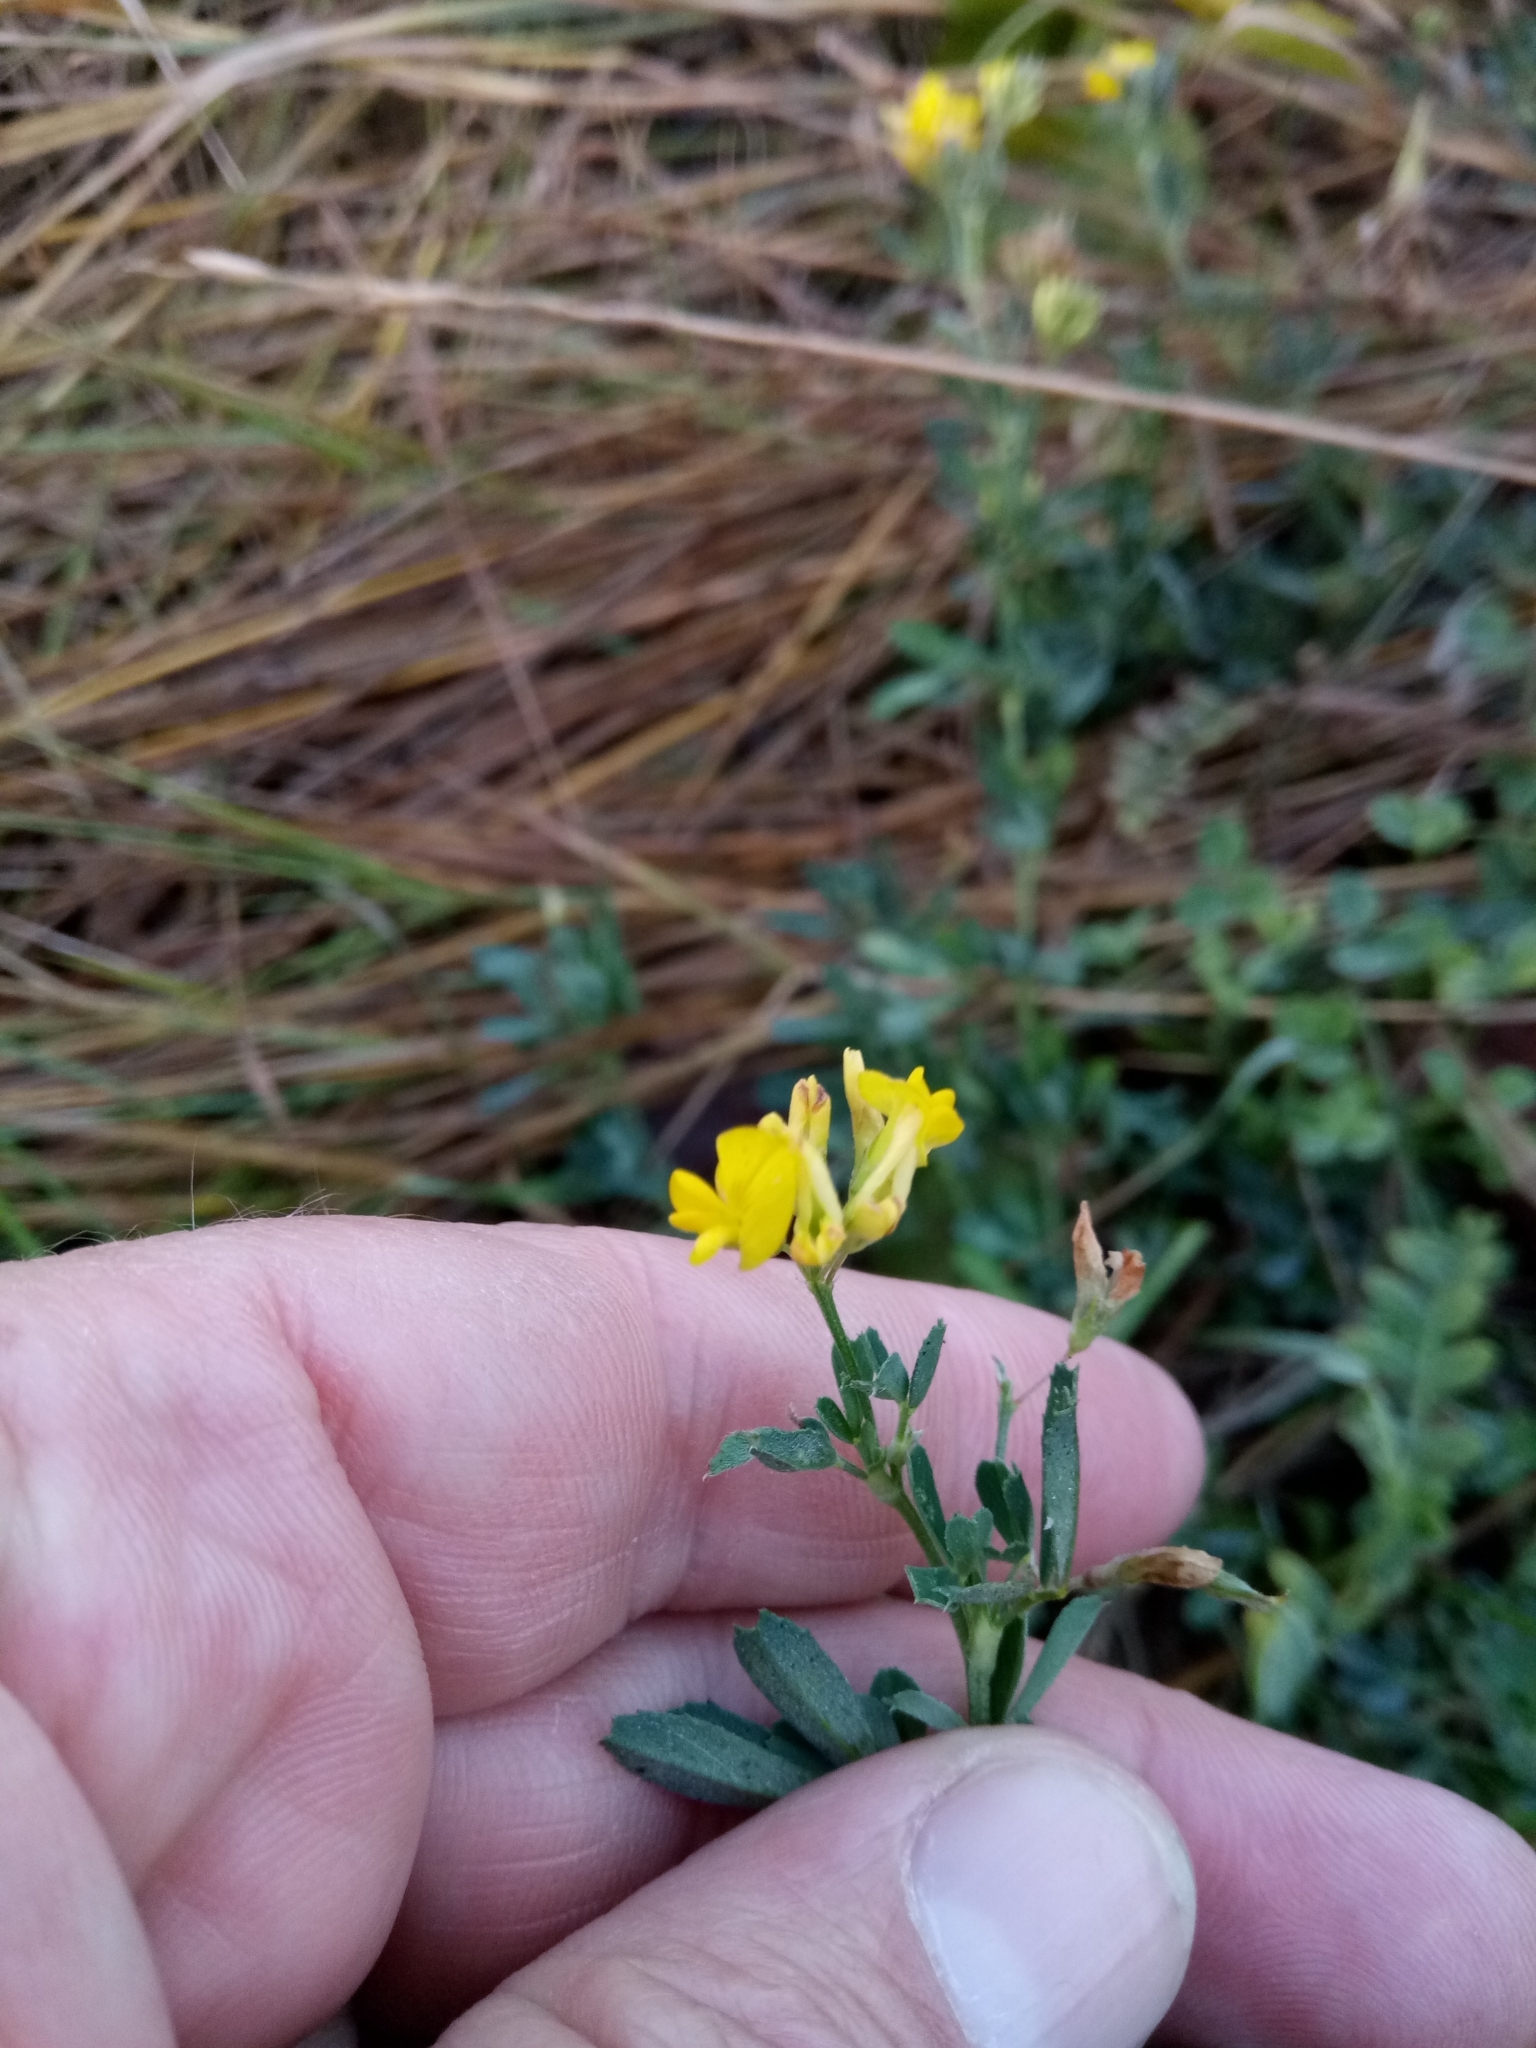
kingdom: Plantae
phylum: Tracheophyta
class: Magnoliopsida
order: Fabales
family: Fabaceae
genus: Medicago
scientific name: Medicago falcata
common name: Sickle medick
